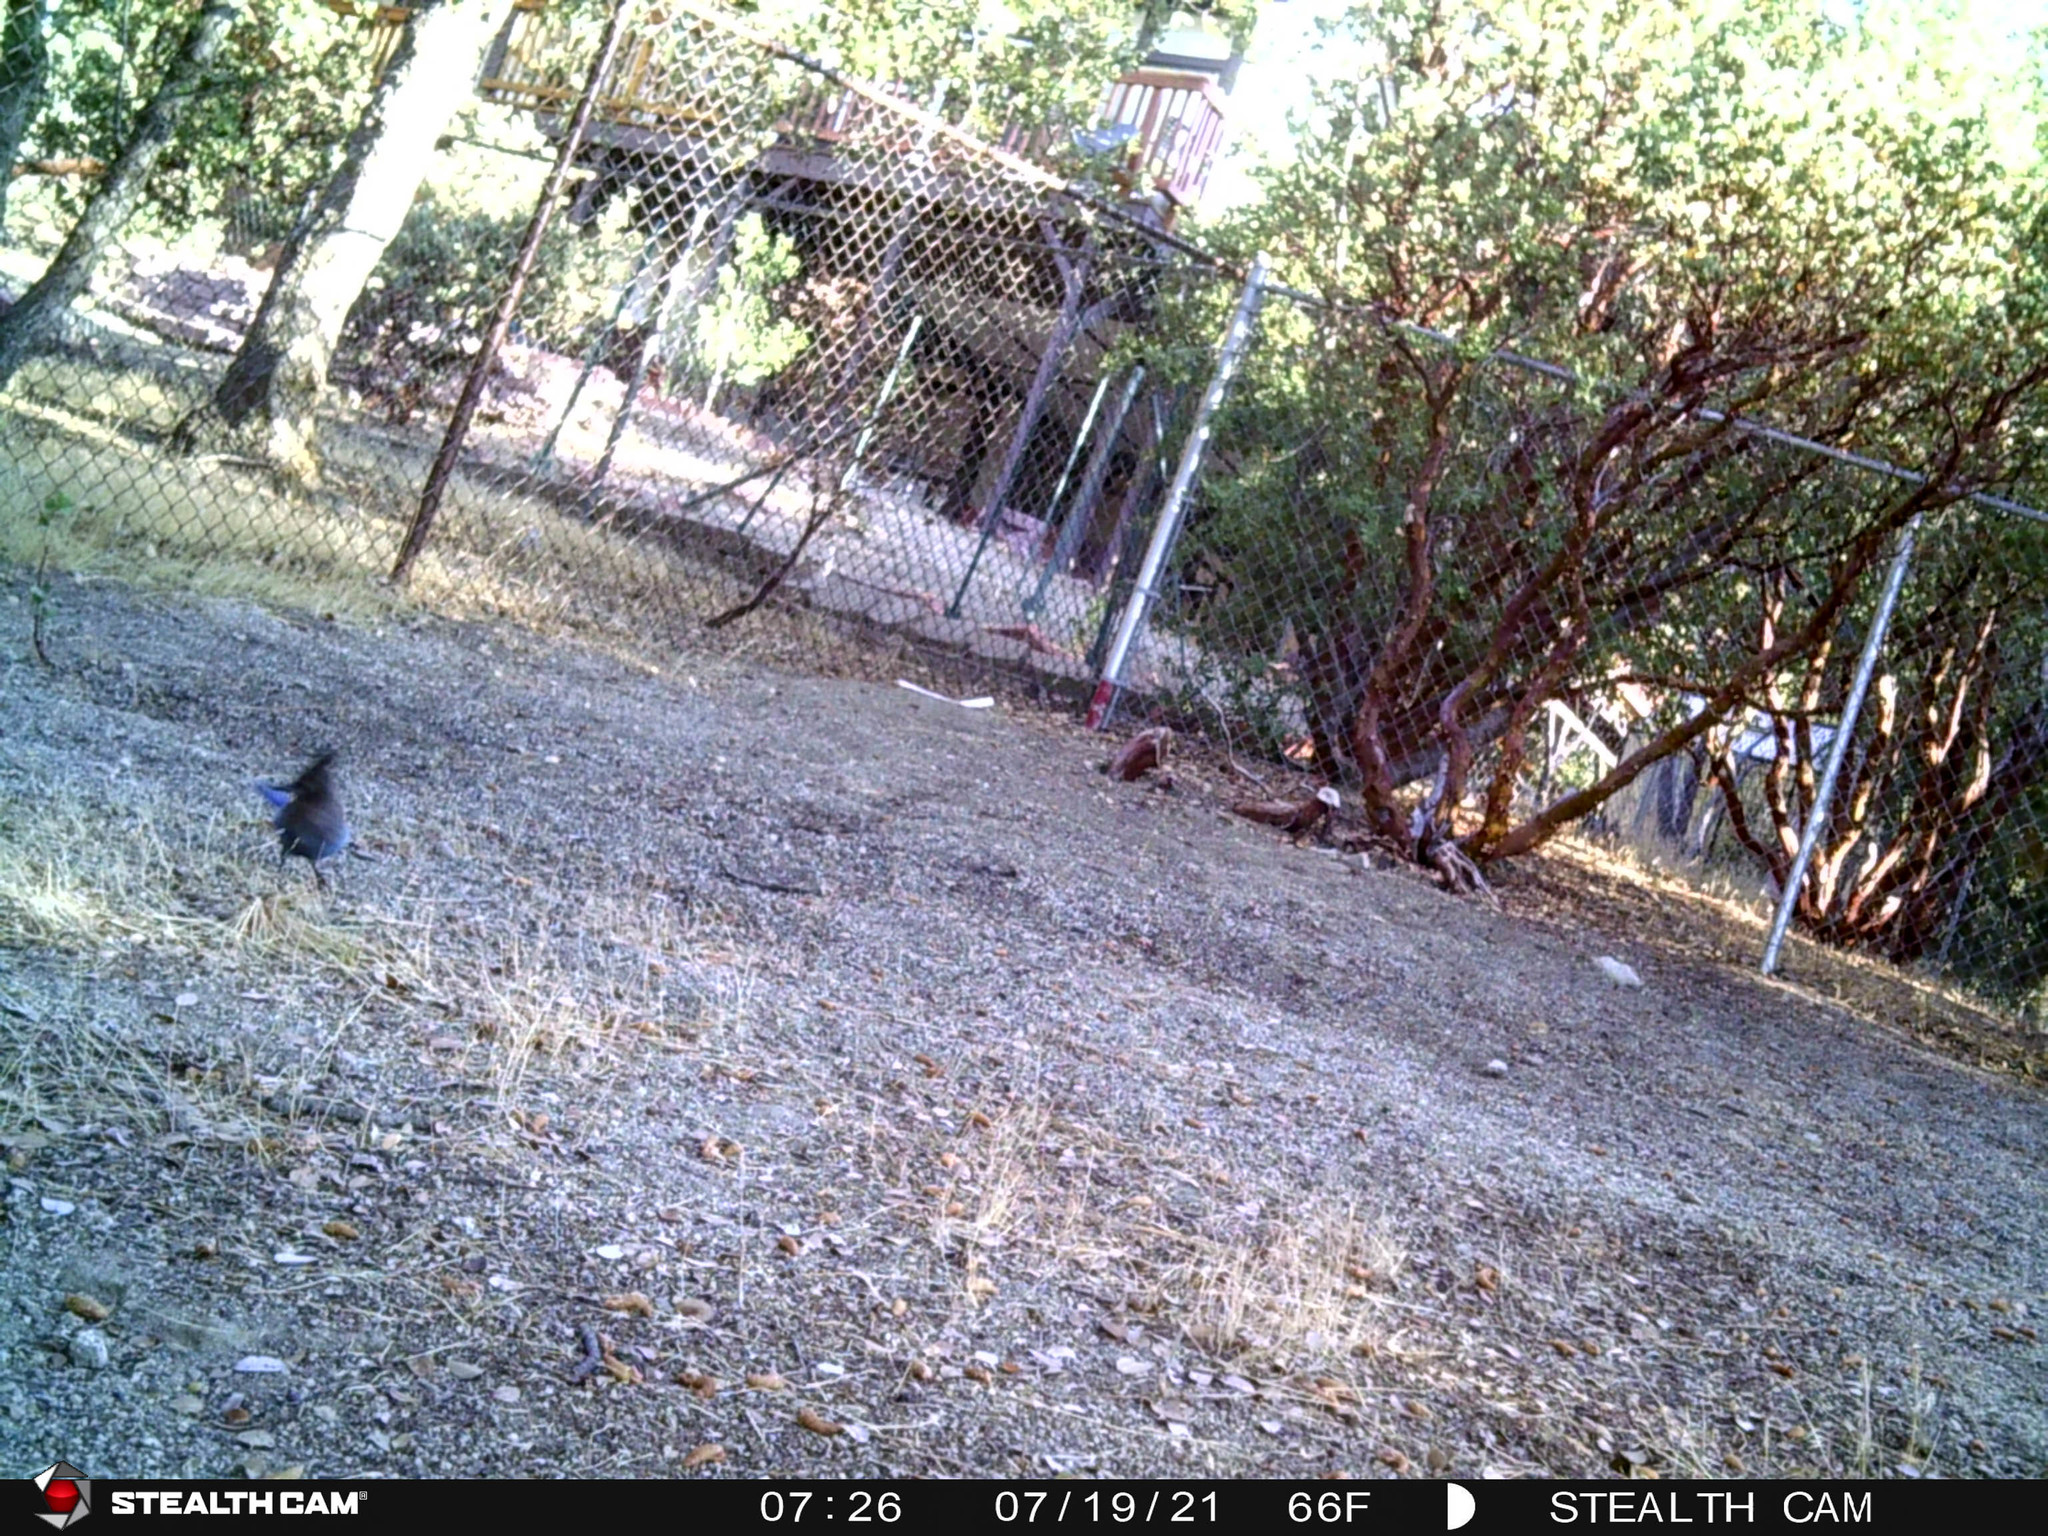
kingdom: Animalia
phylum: Chordata
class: Aves
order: Passeriformes
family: Corvidae
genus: Cyanocitta
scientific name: Cyanocitta stelleri
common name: Steller's jay
